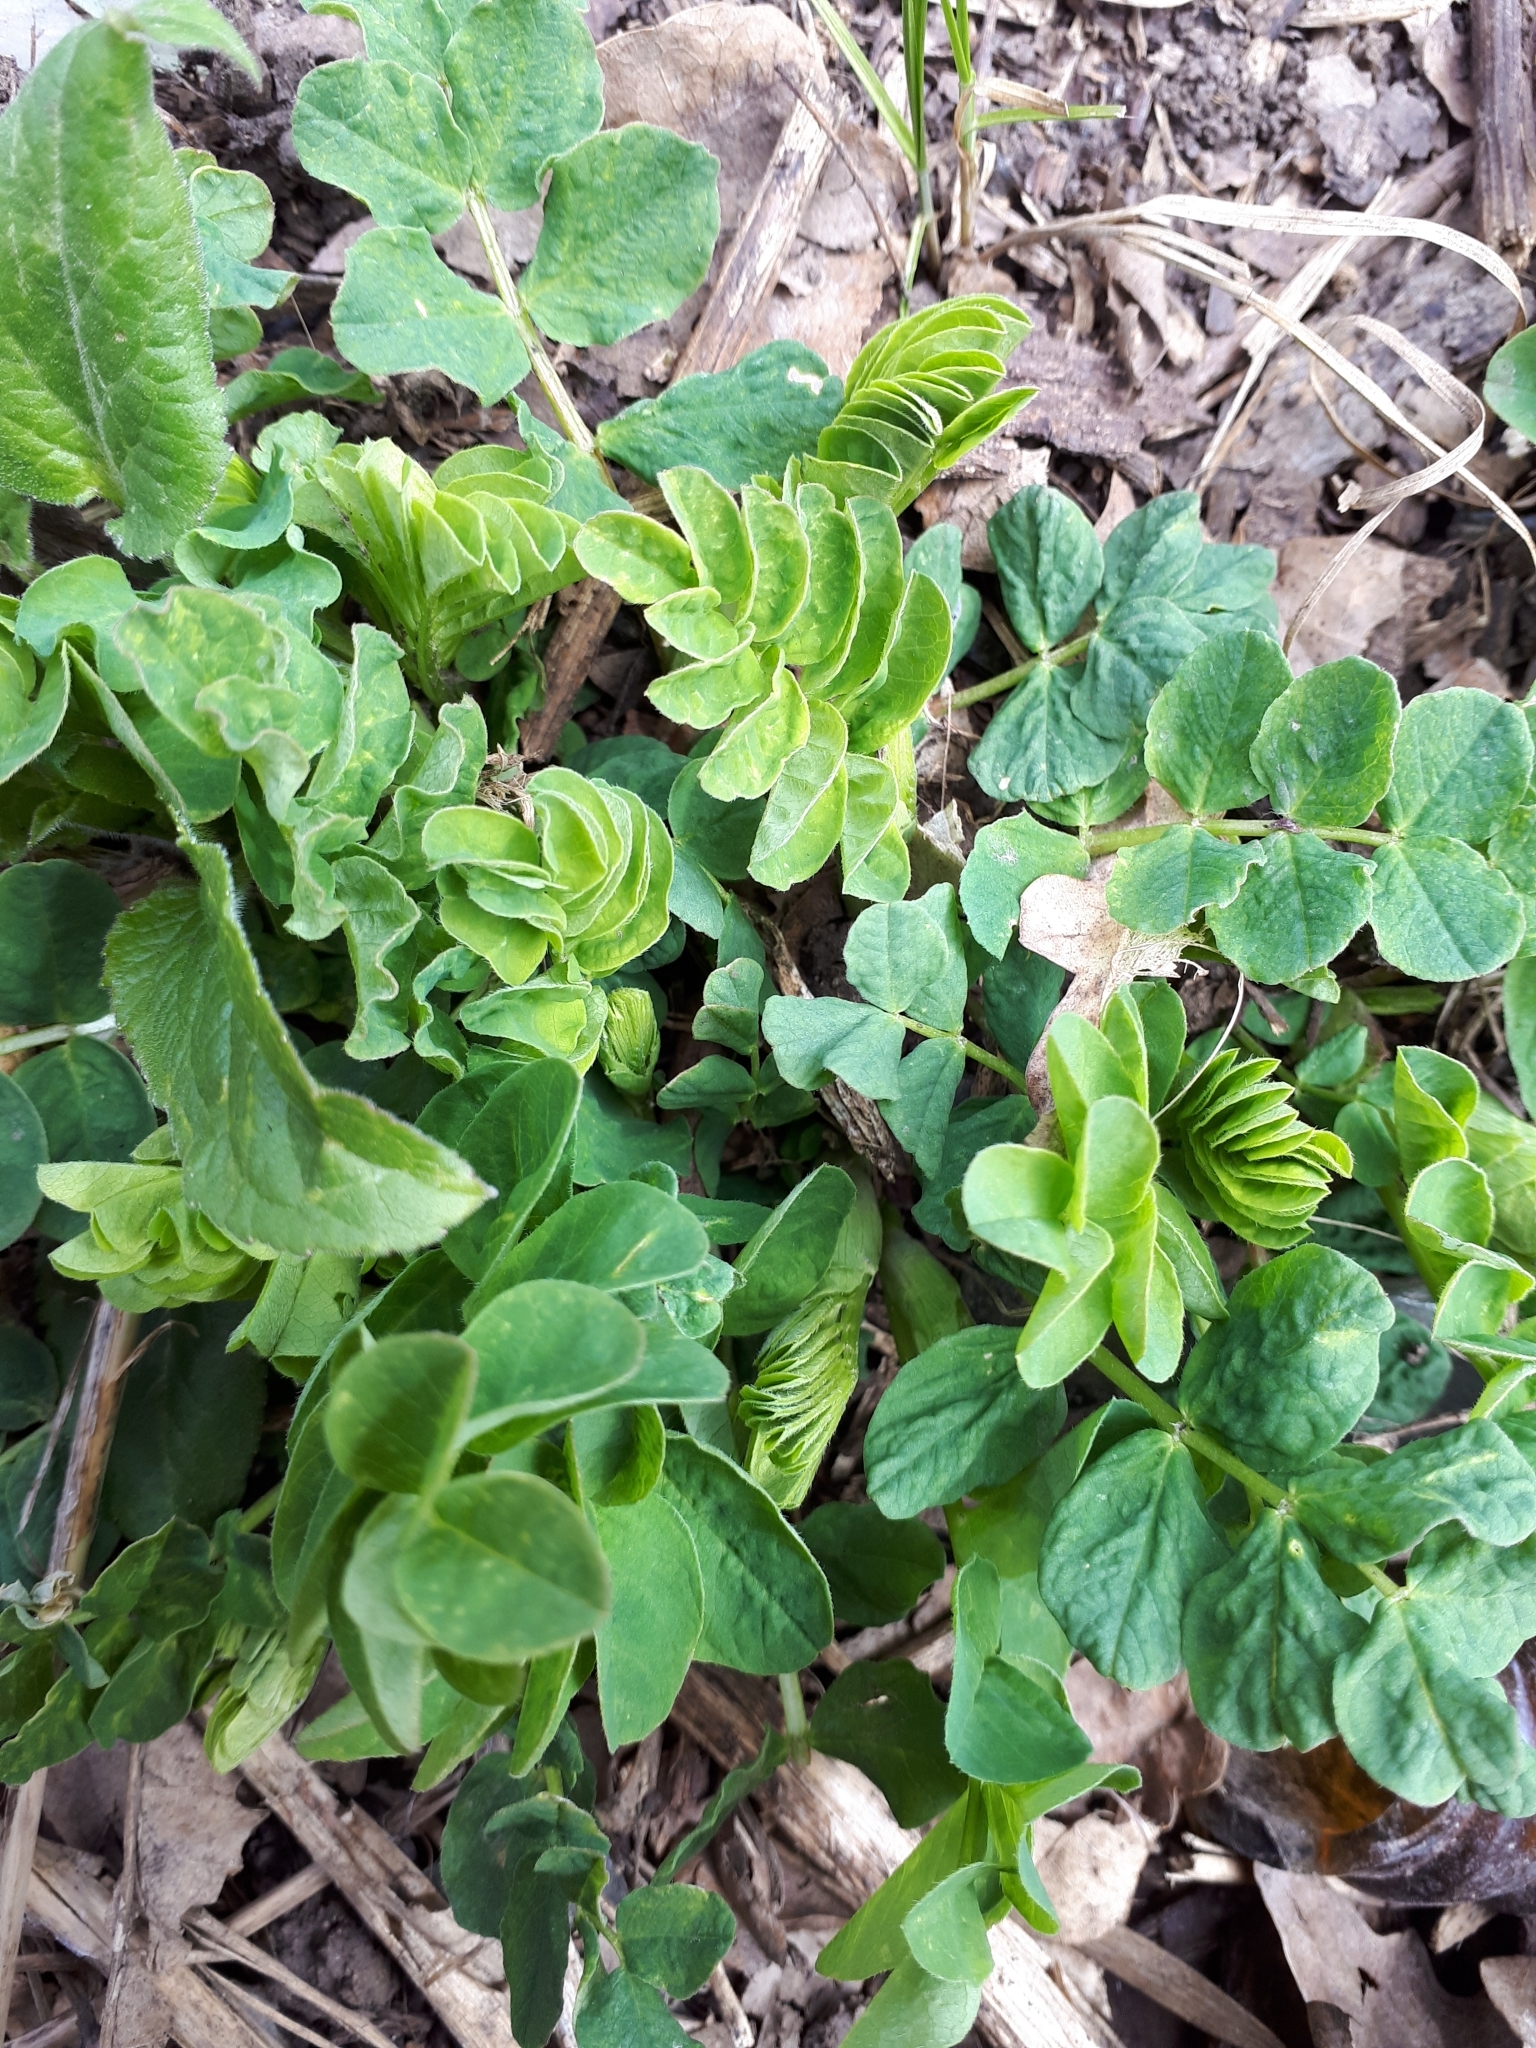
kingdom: Plantae
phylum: Tracheophyta
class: Magnoliopsida
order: Fabales
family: Fabaceae
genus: Astragalus
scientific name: Astragalus glycyphyllos
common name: Wild liquorice
